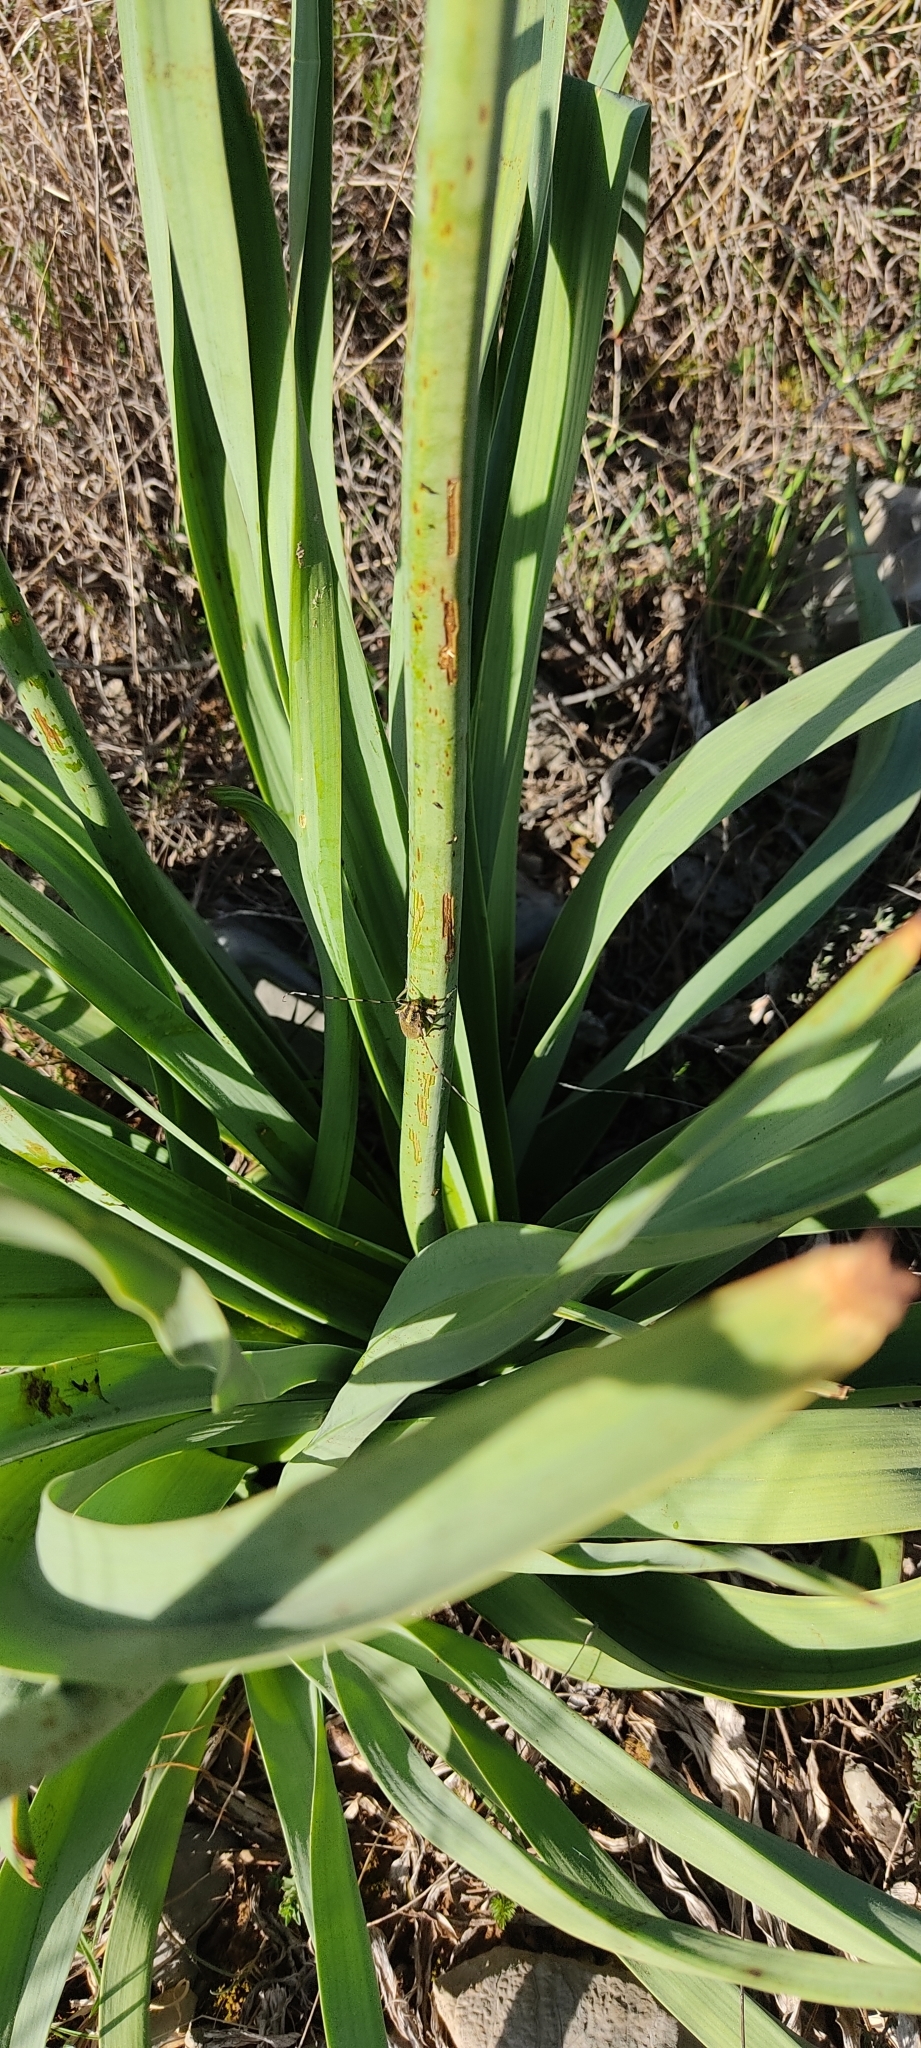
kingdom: Animalia
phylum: Arthropoda
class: Insecta
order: Coleoptera
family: Cerambycidae
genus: Agapanthia
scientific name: Agapanthia asphodeli
